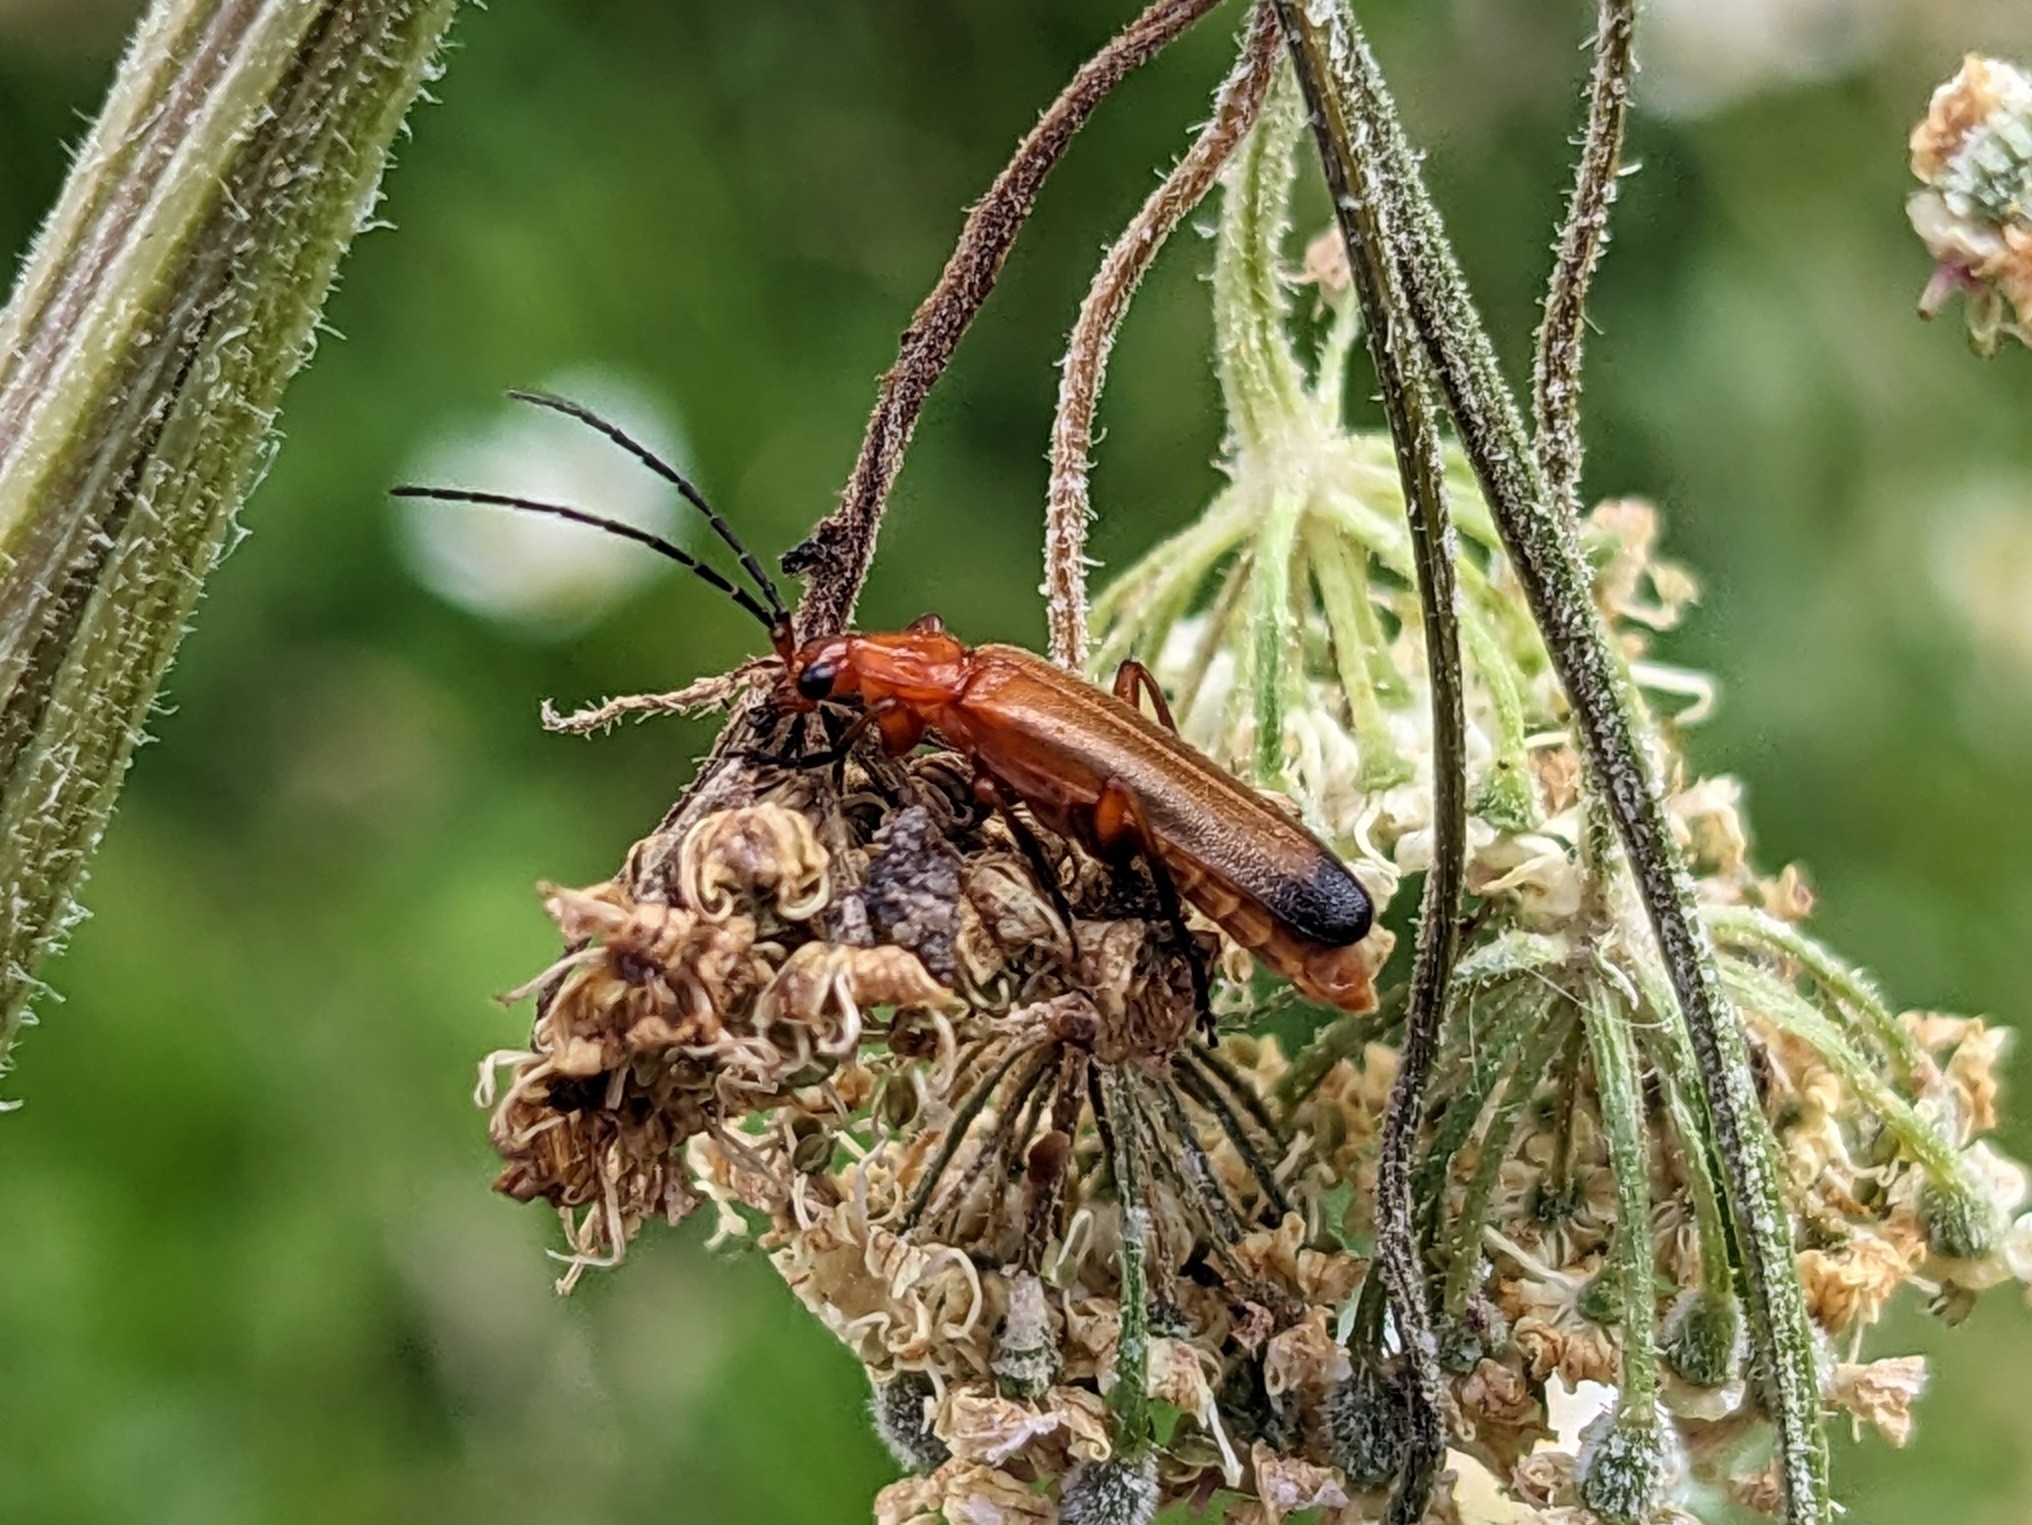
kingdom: Animalia
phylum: Arthropoda
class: Insecta
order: Coleoptera
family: Cantharidae
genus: Rhagonycha
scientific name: Rhagonycha fulva
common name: Common red soldier beetle
